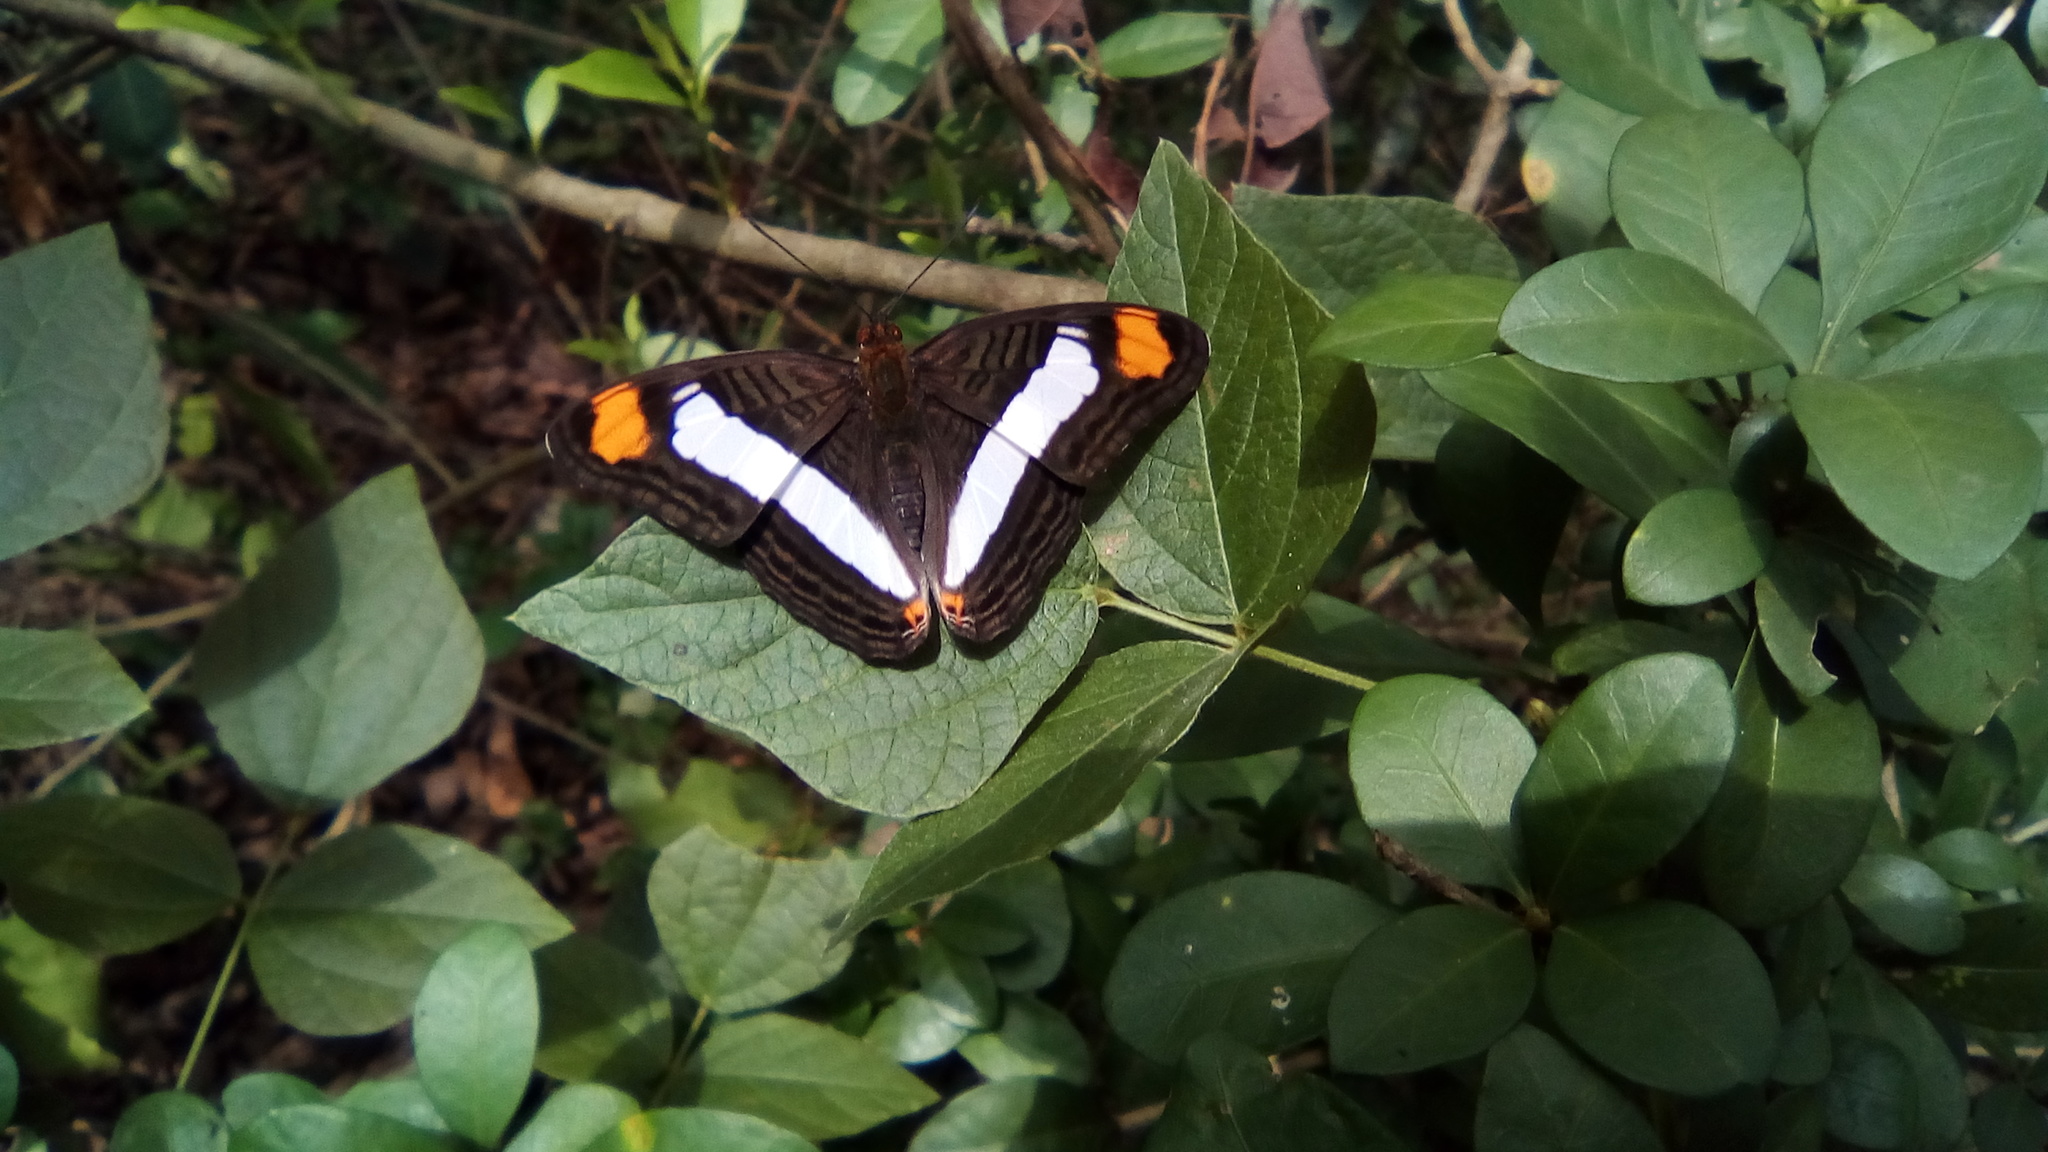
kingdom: Animalia
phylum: Arthropoda
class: Insecta
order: Lepidoptera
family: Nymphalidae
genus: Limenitis
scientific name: Limenitis Adelpha basiloides
